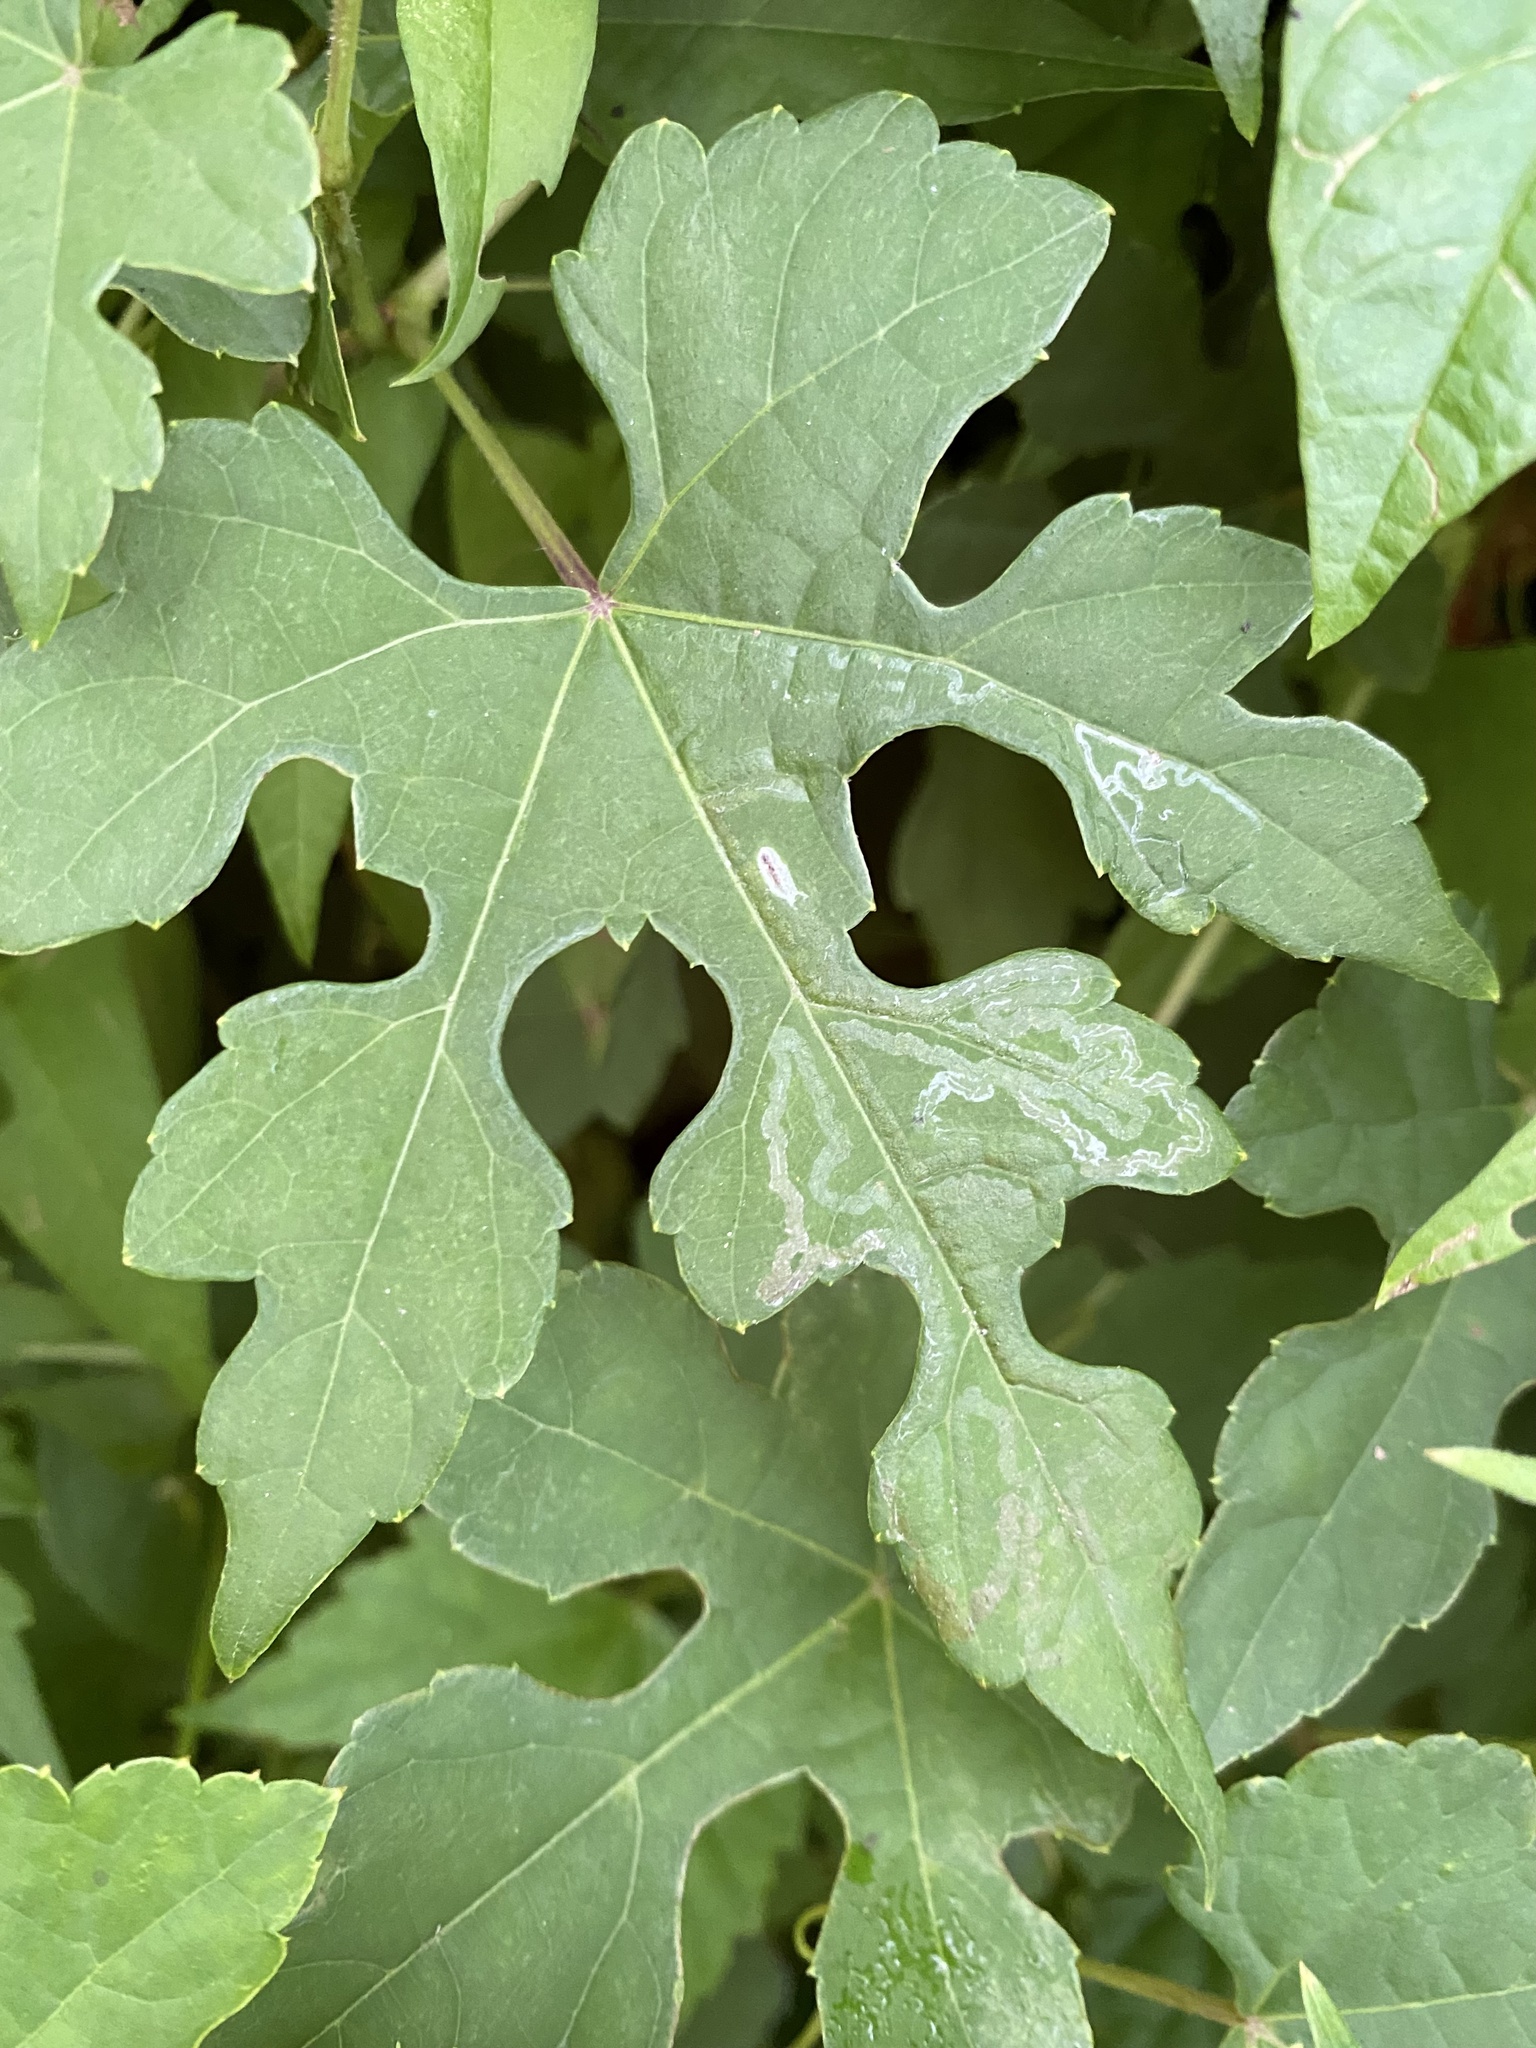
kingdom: Animalia
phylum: Arthropoda
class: Insecta
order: Lepidoptera
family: Gracillariidae
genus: Phyllocnistis
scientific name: Phyllocnistis vitegenella
